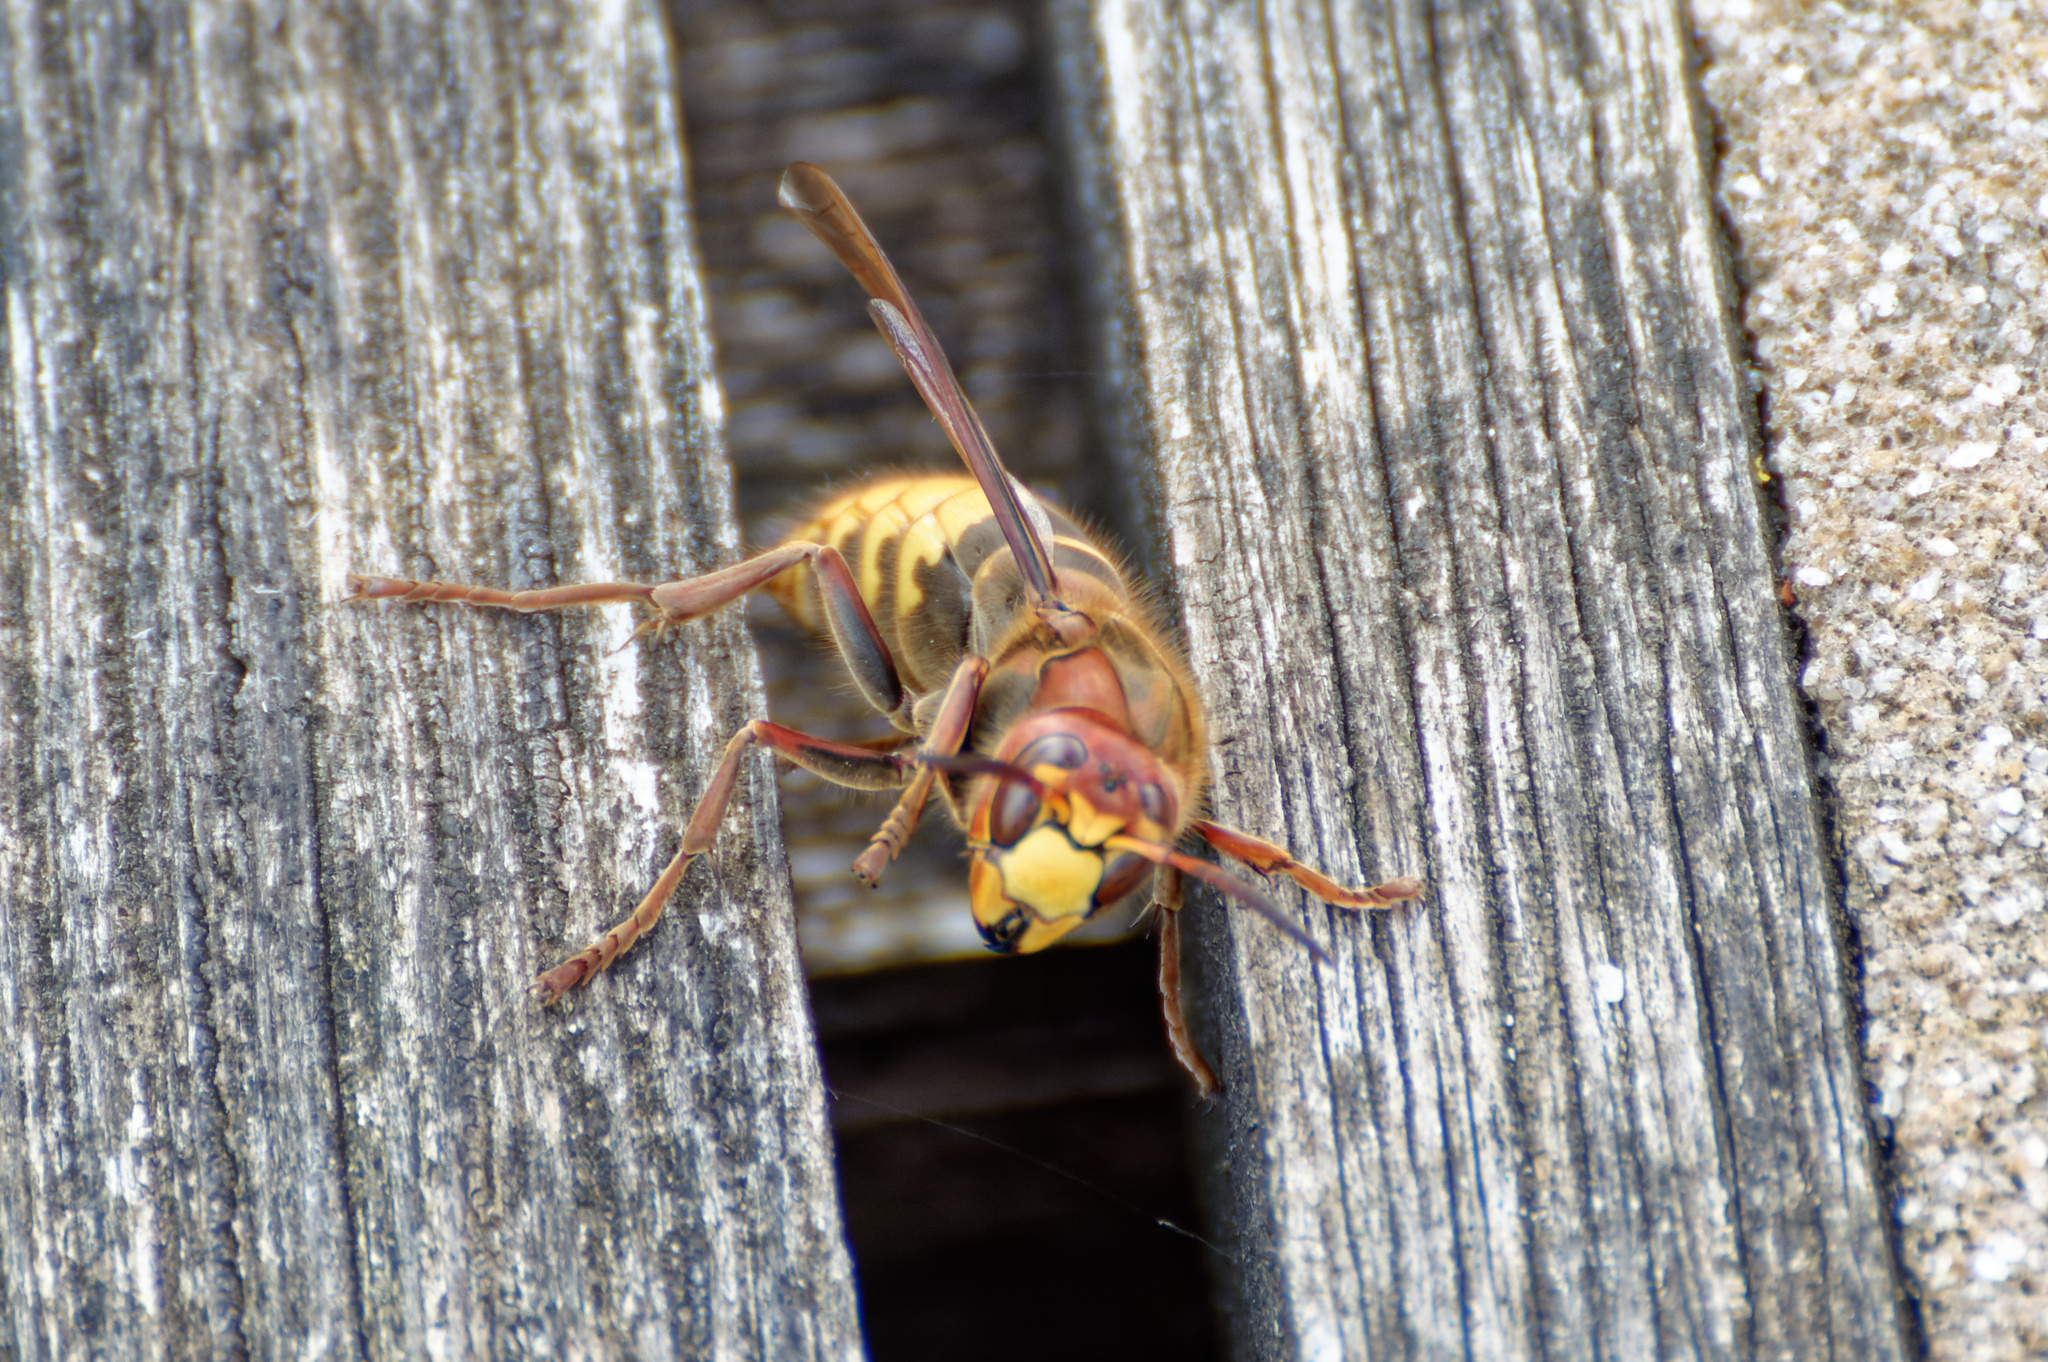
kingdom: Animalia
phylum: Arthropoda
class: Insecta
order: Hymenoptera
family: Vespidae
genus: Vespa
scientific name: Vespa crabro
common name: Hornet
